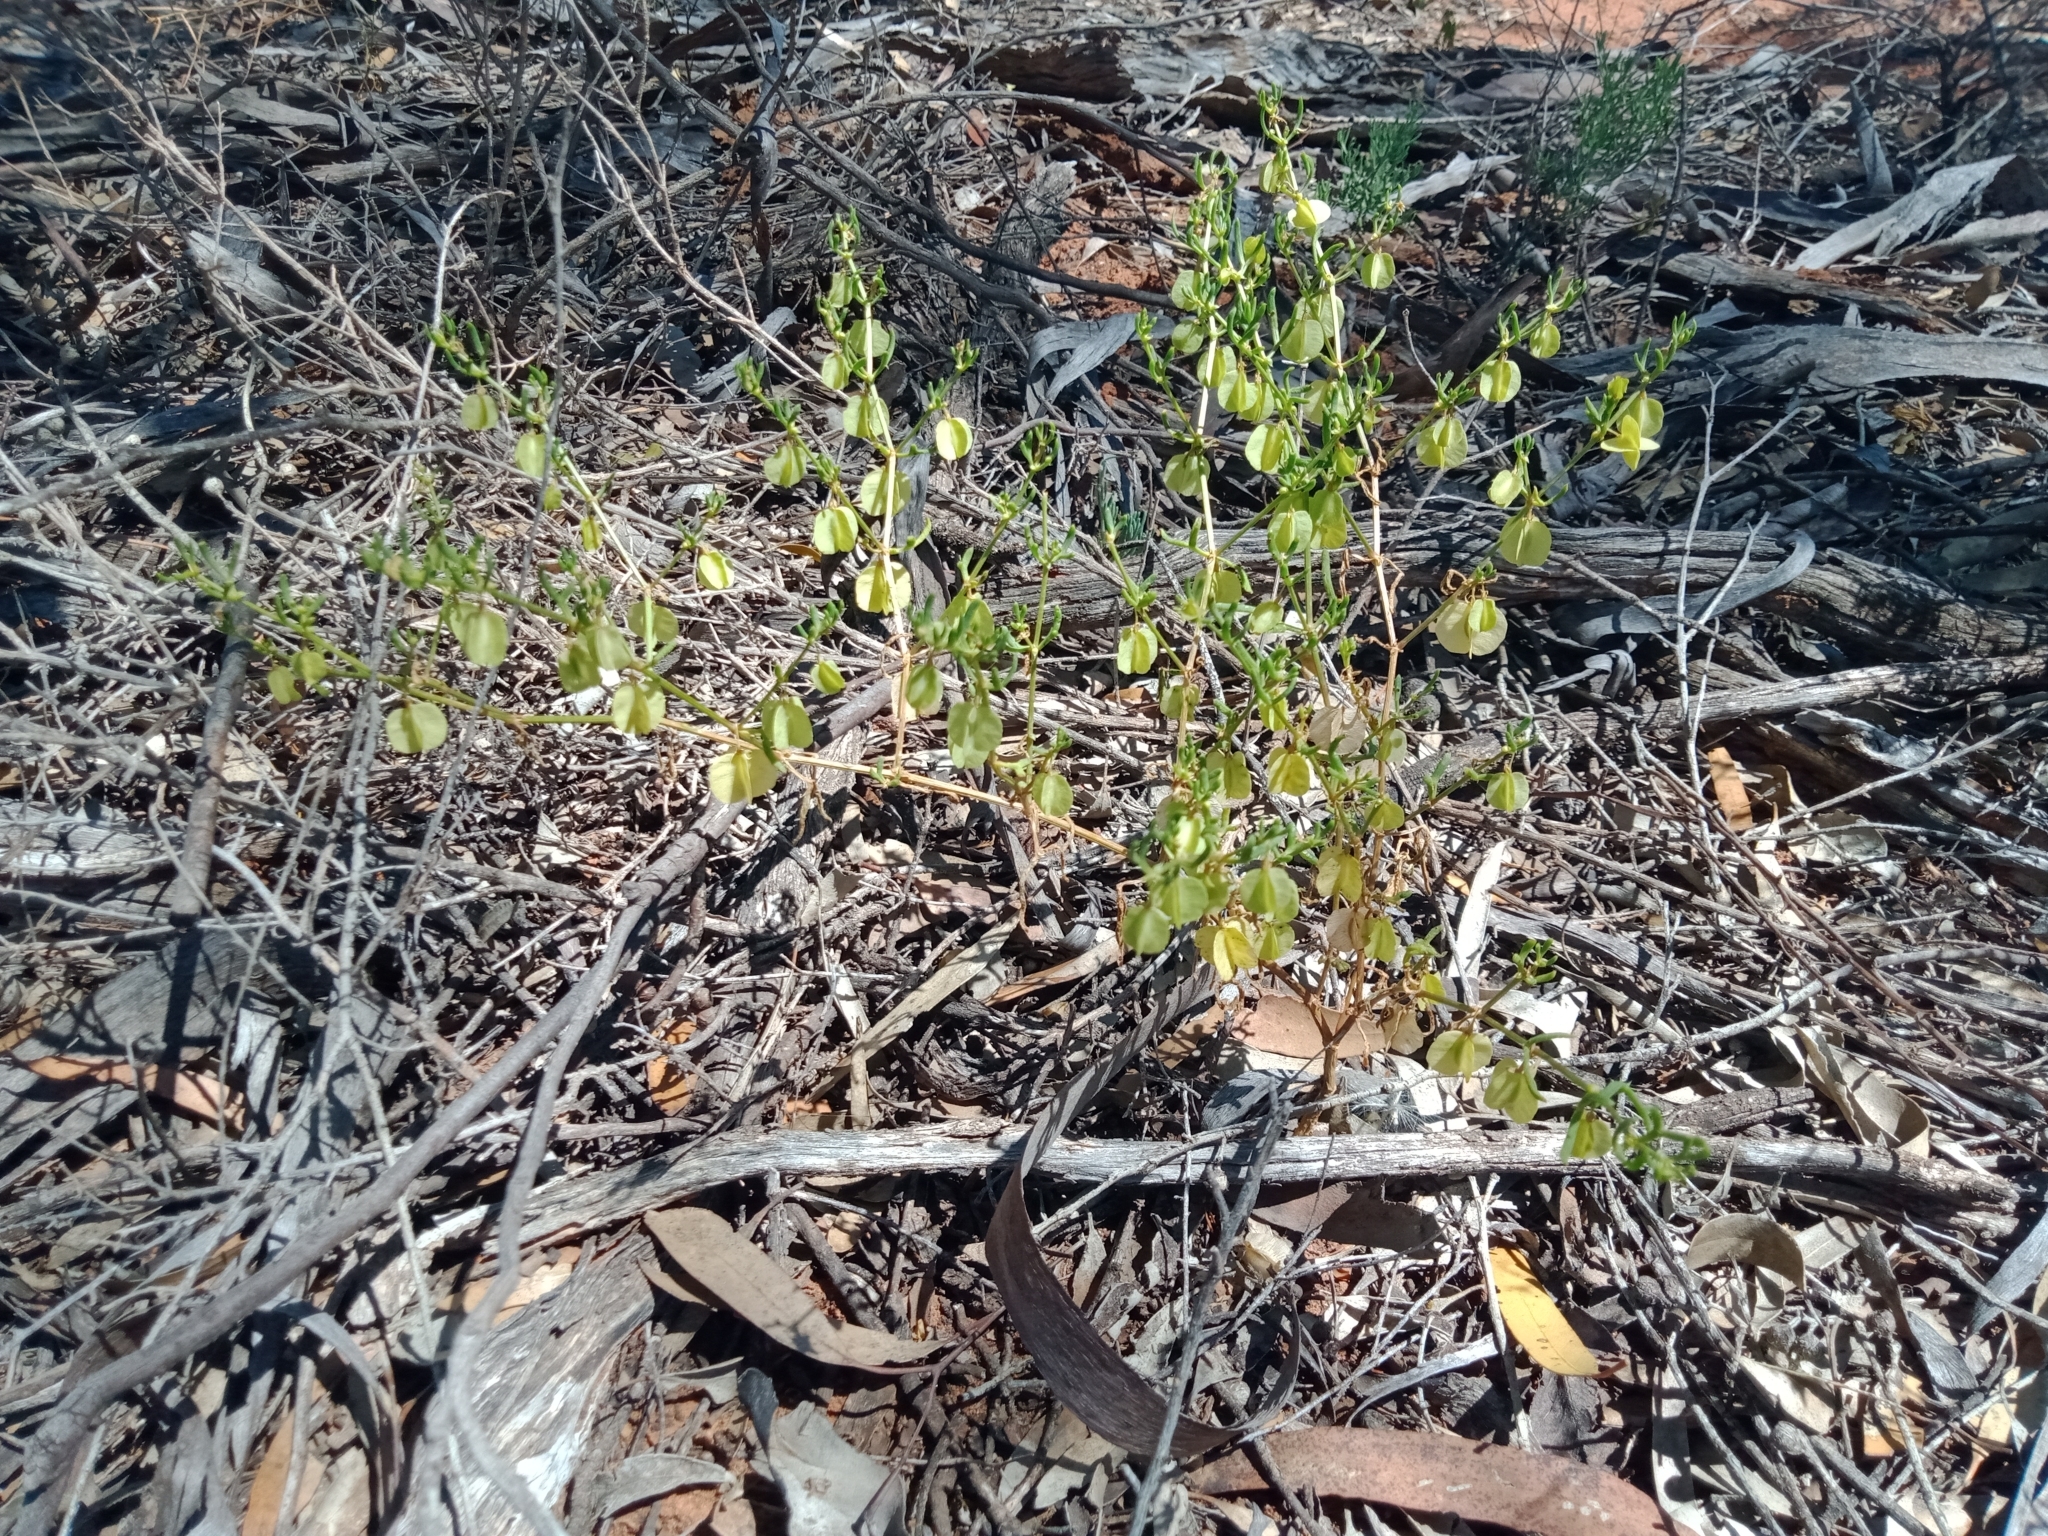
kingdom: Plantae
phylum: Tracheophyta
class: Magnoliopsida
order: Zygophyllales
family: Zygophyllaceae
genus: Roepera
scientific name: Roepera aurantiaca
